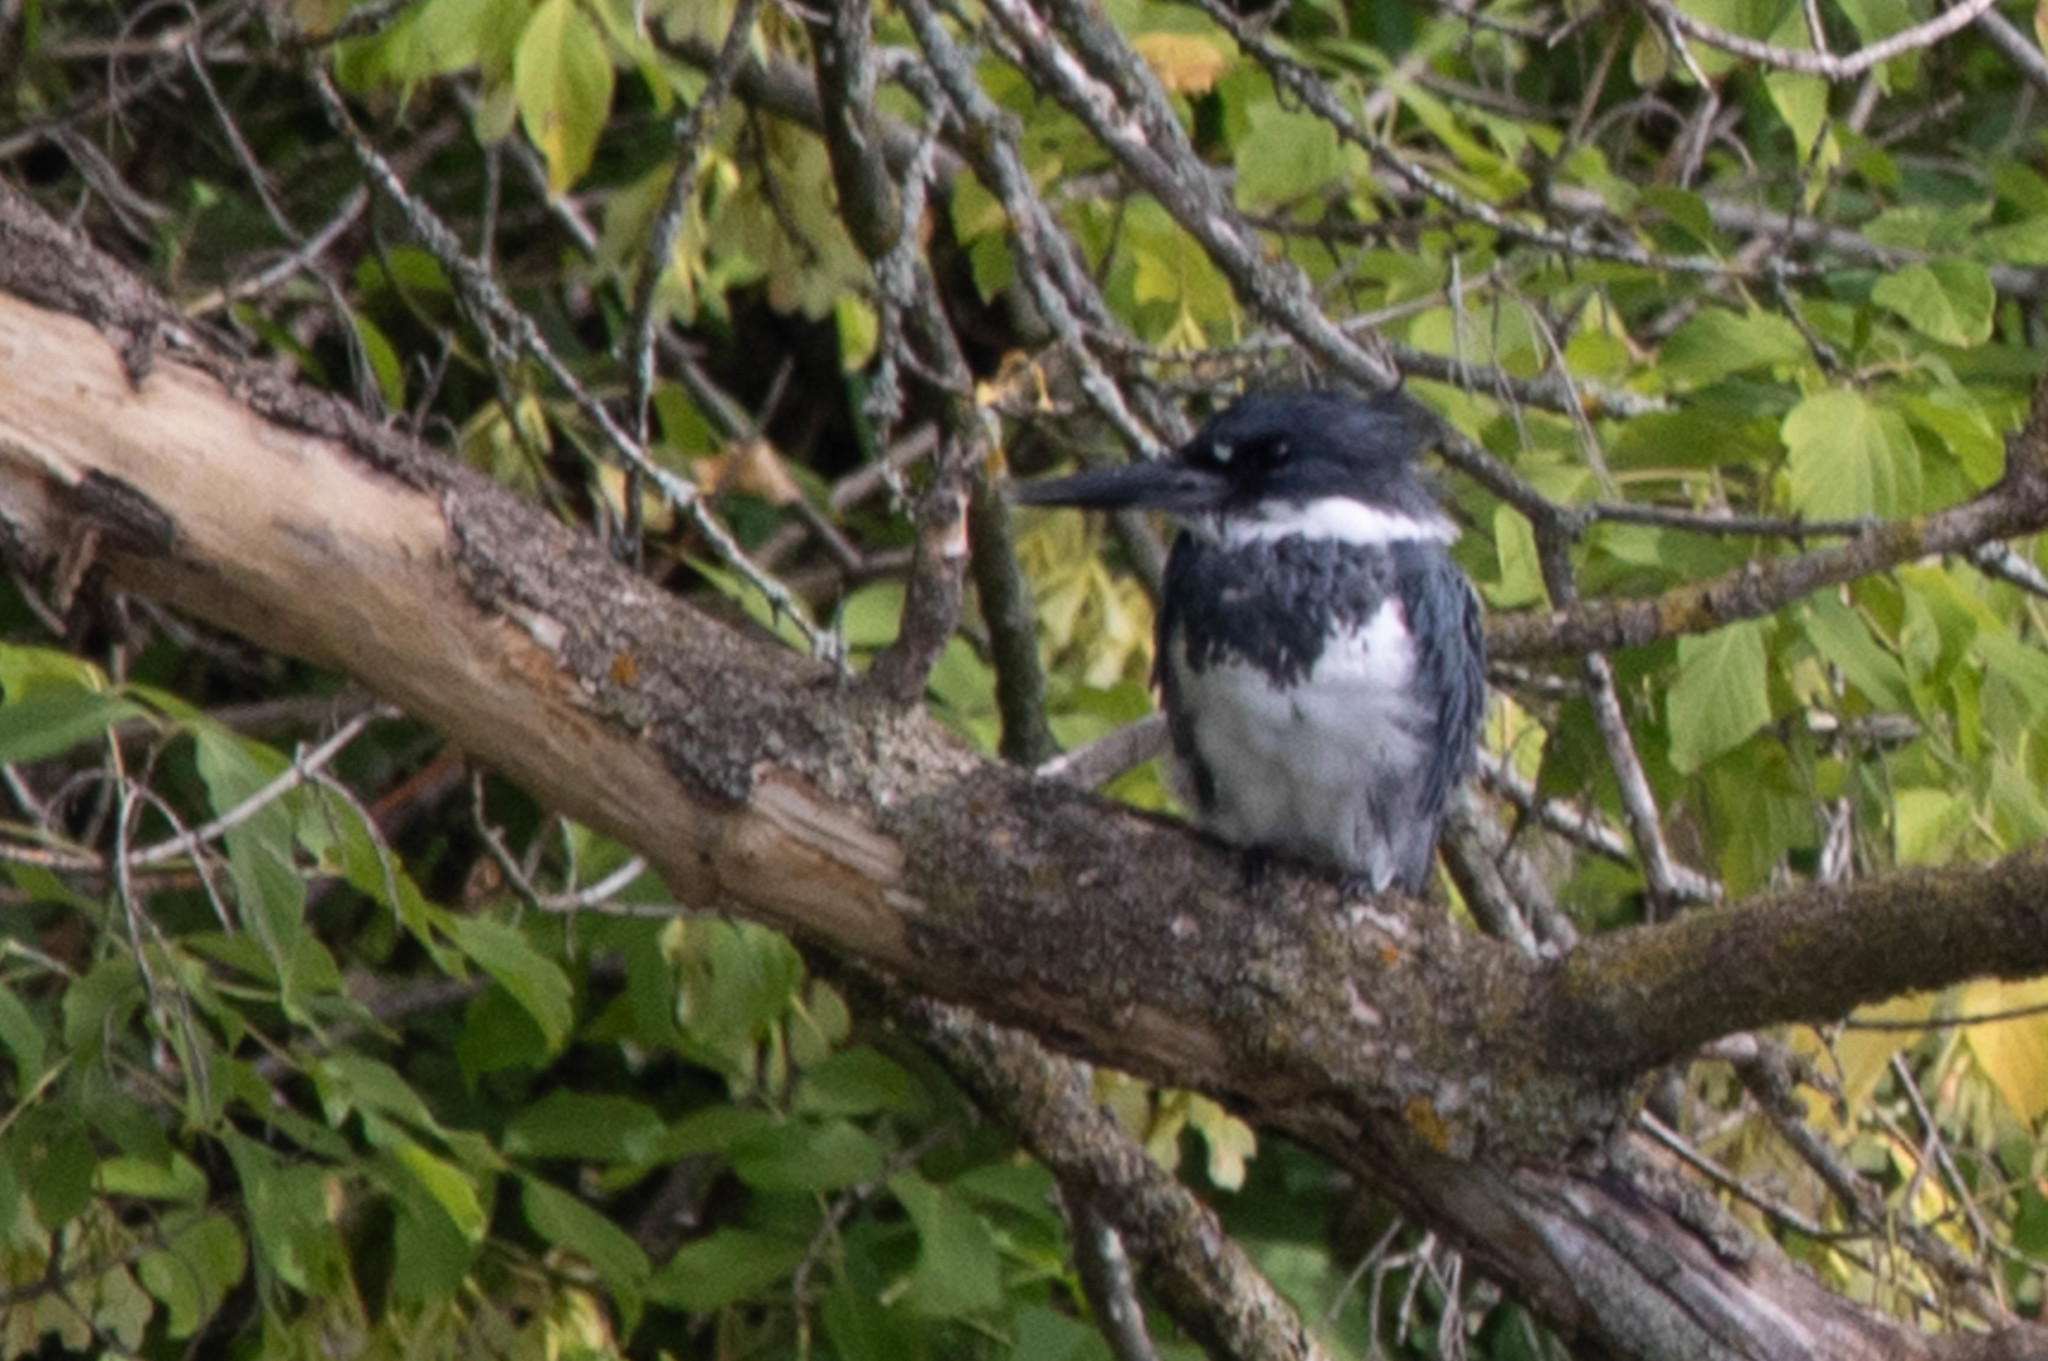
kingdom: Animalia
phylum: Chordata
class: Aves
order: Coraciiformes
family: Alcedinidae
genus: Megaceryle
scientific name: Megaceryle alcyon
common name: Belted kingfisher
